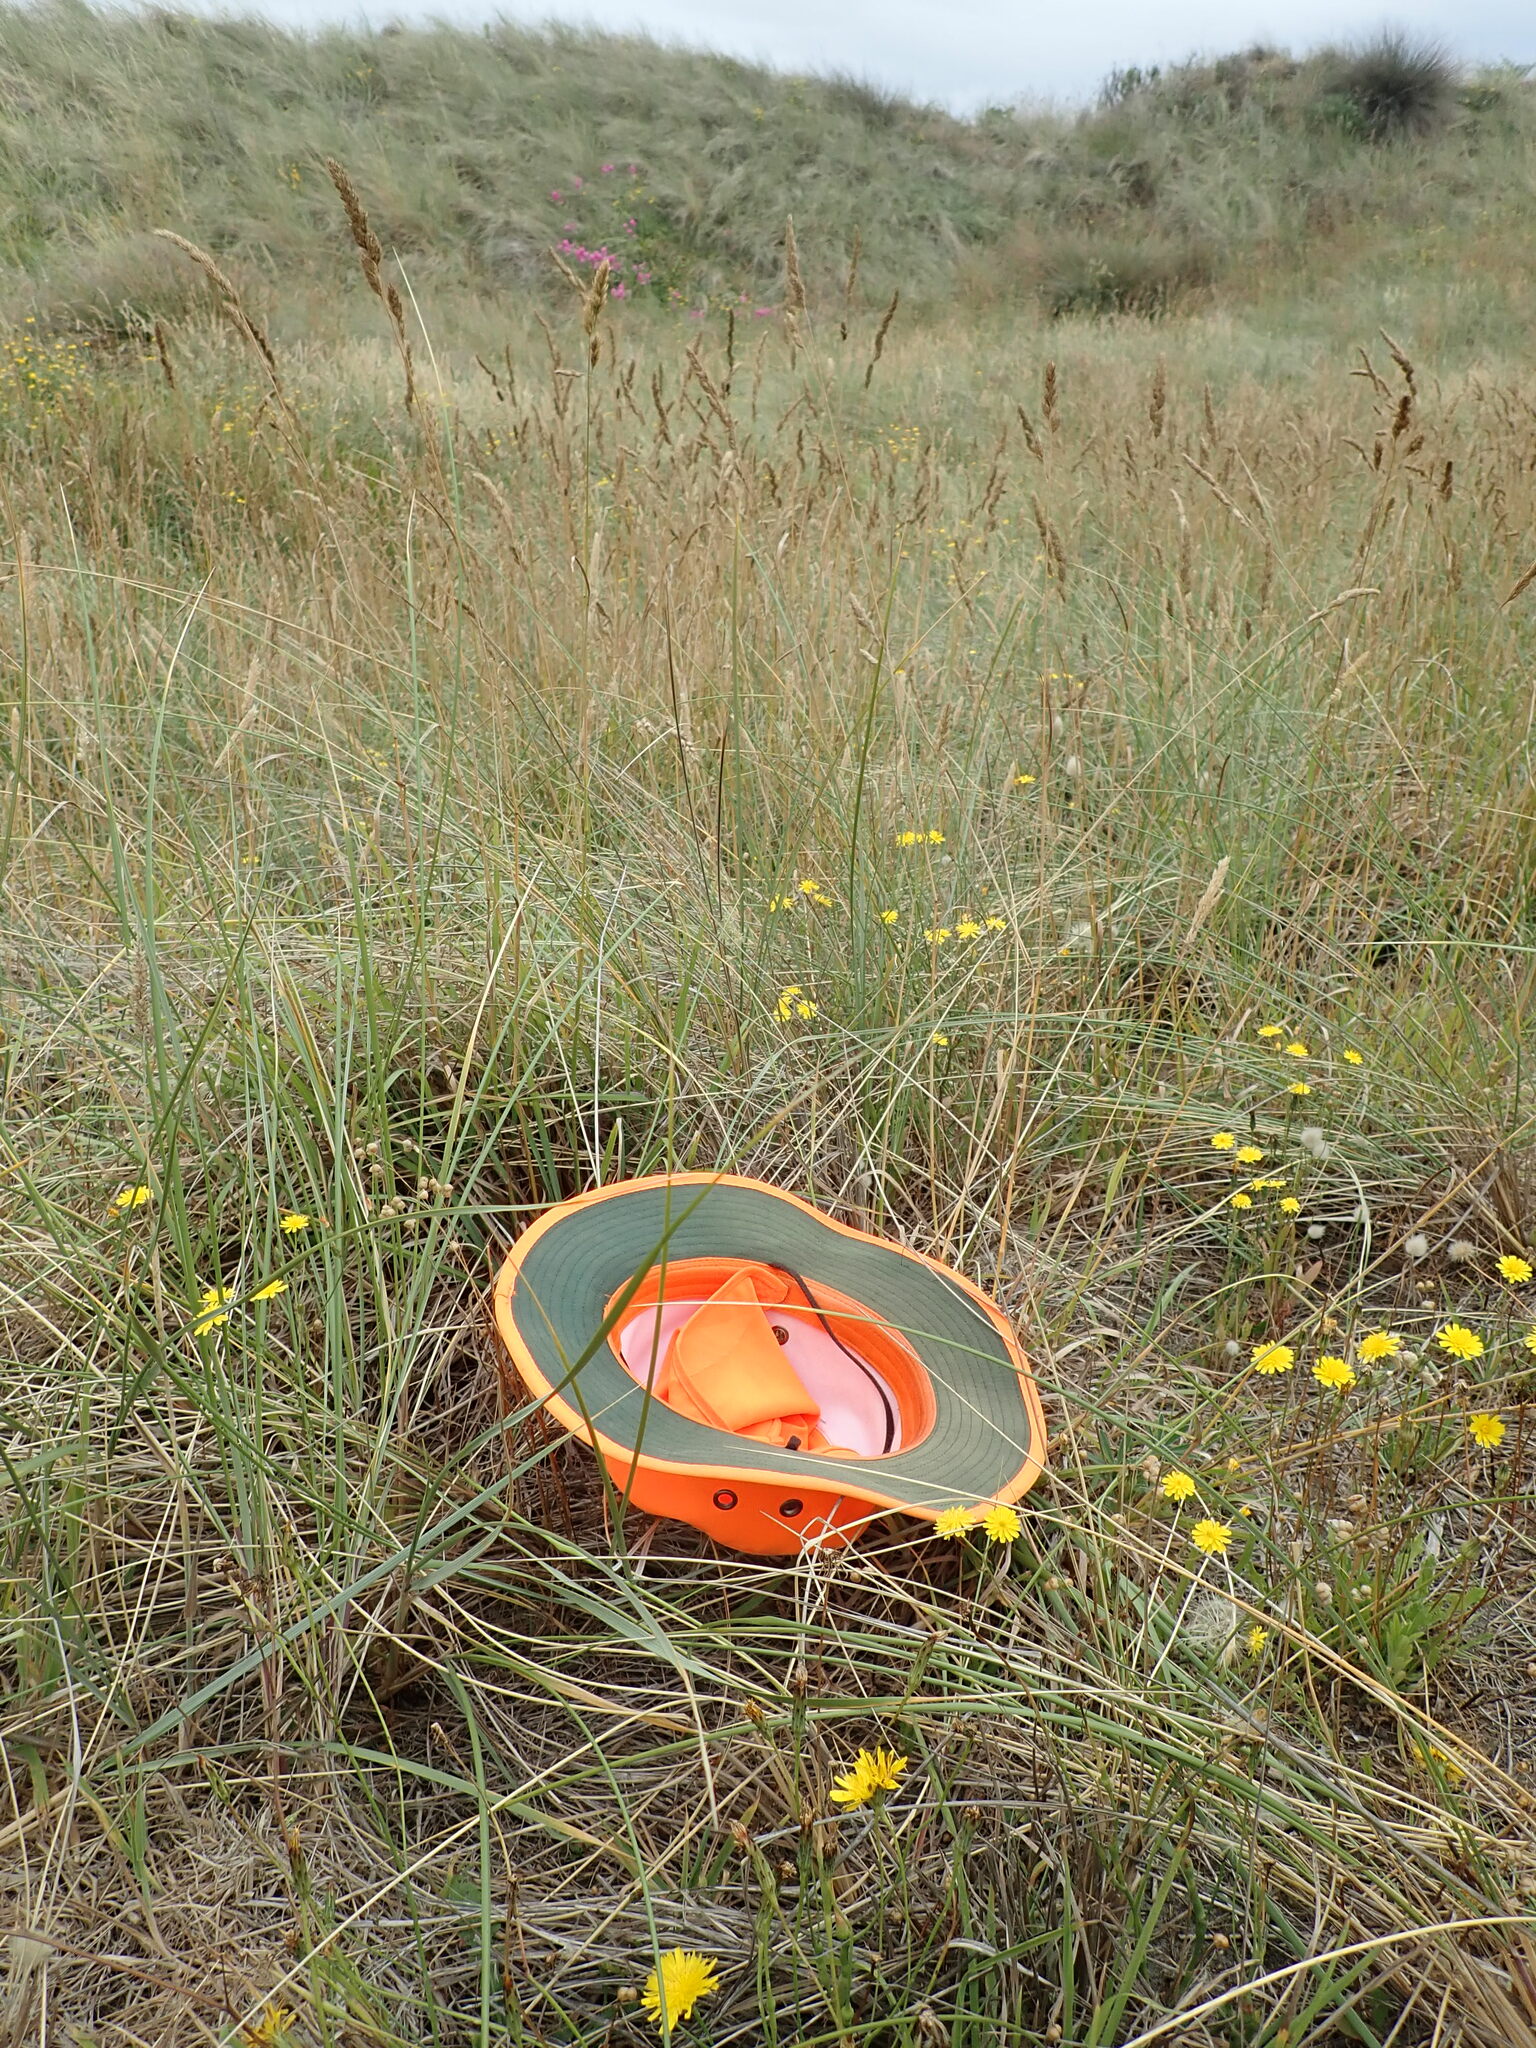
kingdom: Plantae
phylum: Tracheophyta
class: Liliopsida
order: Poales
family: Poaceae
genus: Briza
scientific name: Briza maxima
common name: Big quakinggrass
